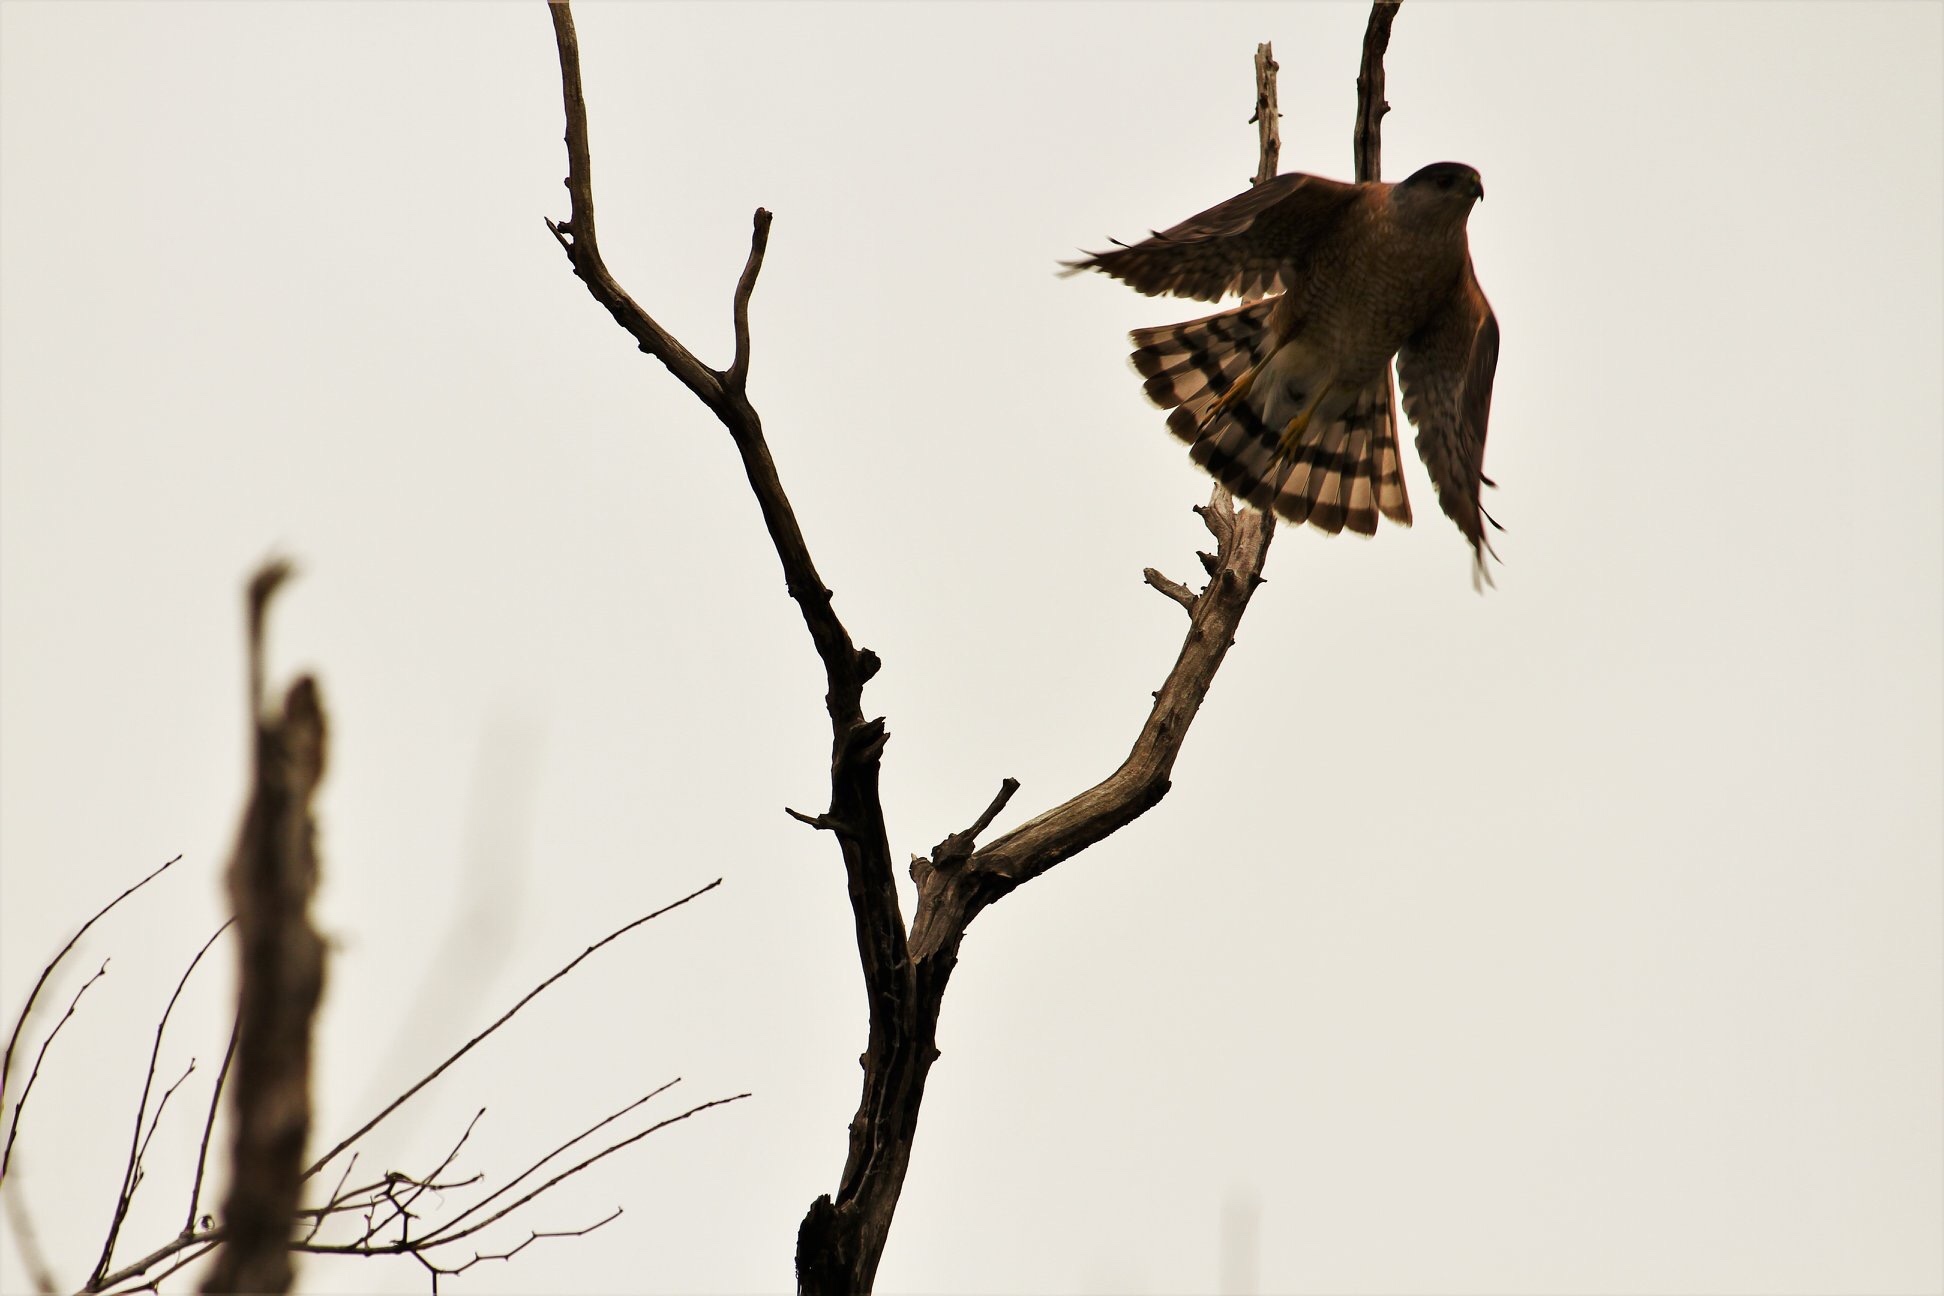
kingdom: Animalia
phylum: Chordata
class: Aves
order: Accipitriformes
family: Accipitridae
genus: Accipiter
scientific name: Accipiter cooperii
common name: Cooper's hawk
